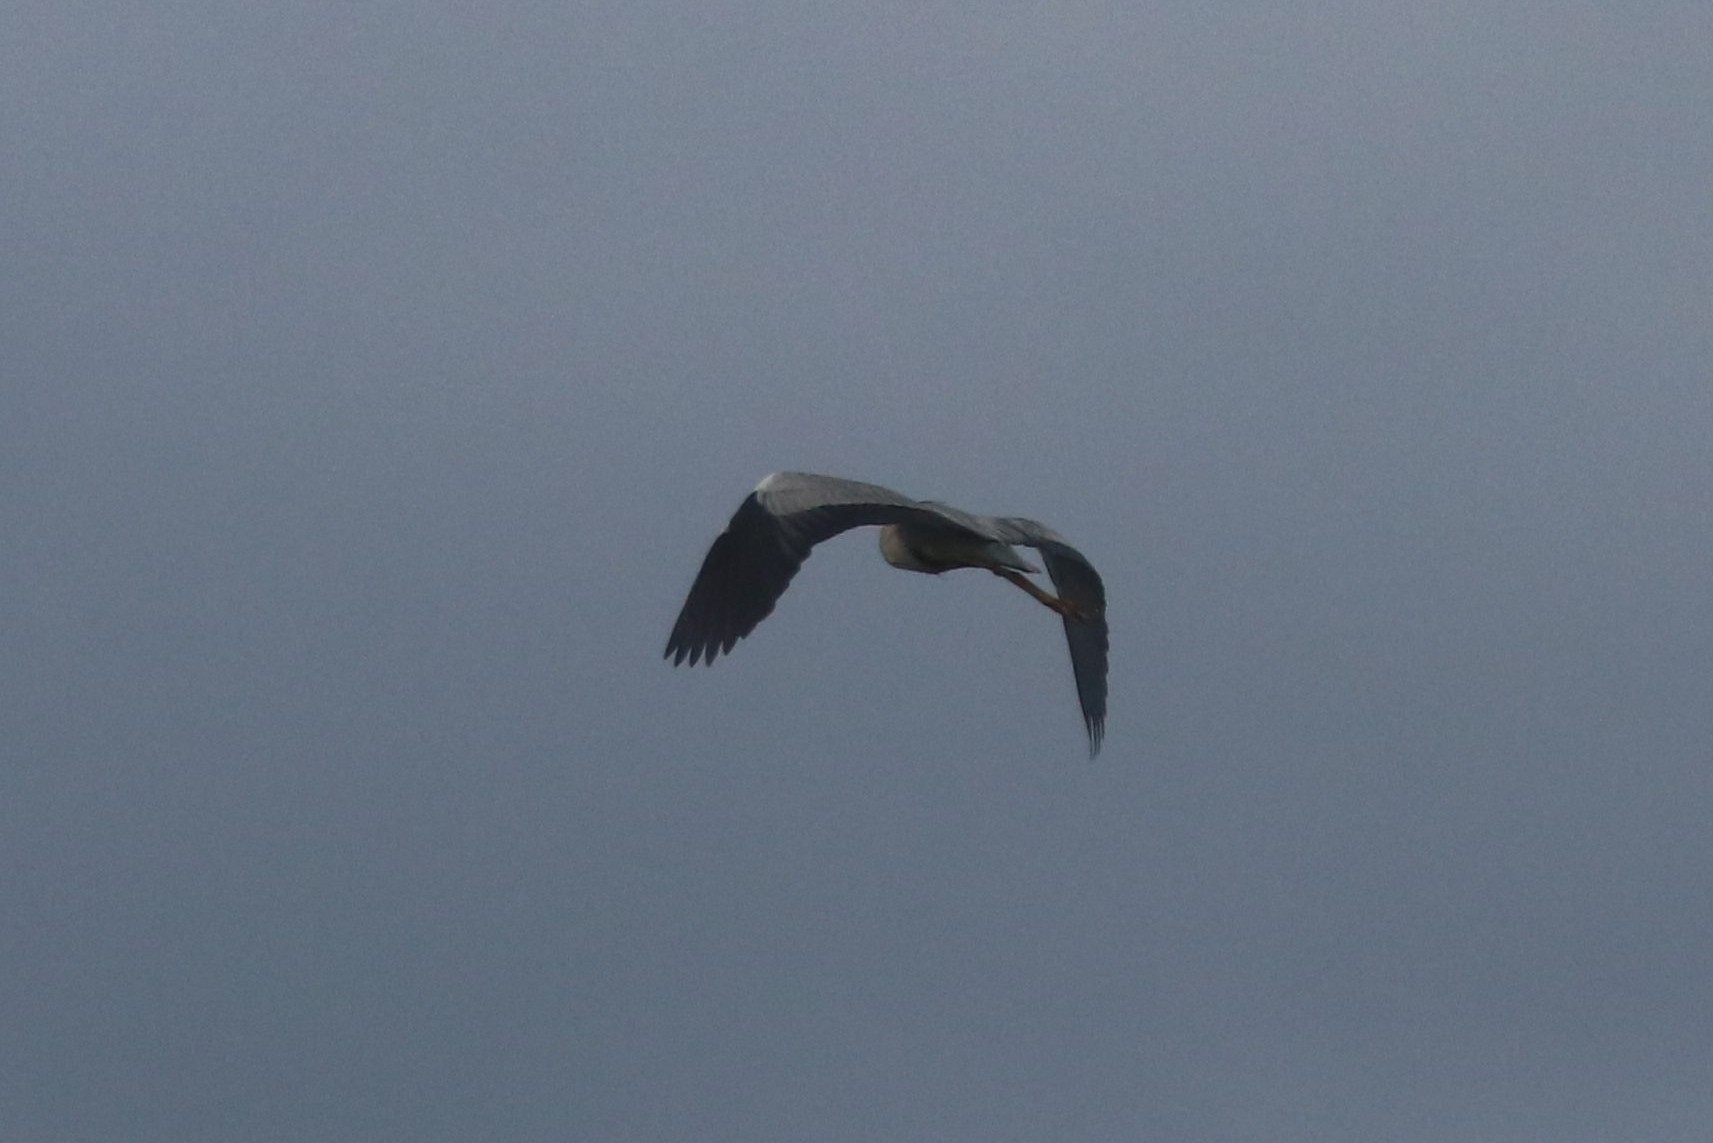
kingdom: Animalia
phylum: Chordata
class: Aves
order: Pelecaniformes
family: Ardeidae
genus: Ardea
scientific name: Ardea cinerea
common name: Grey heron
